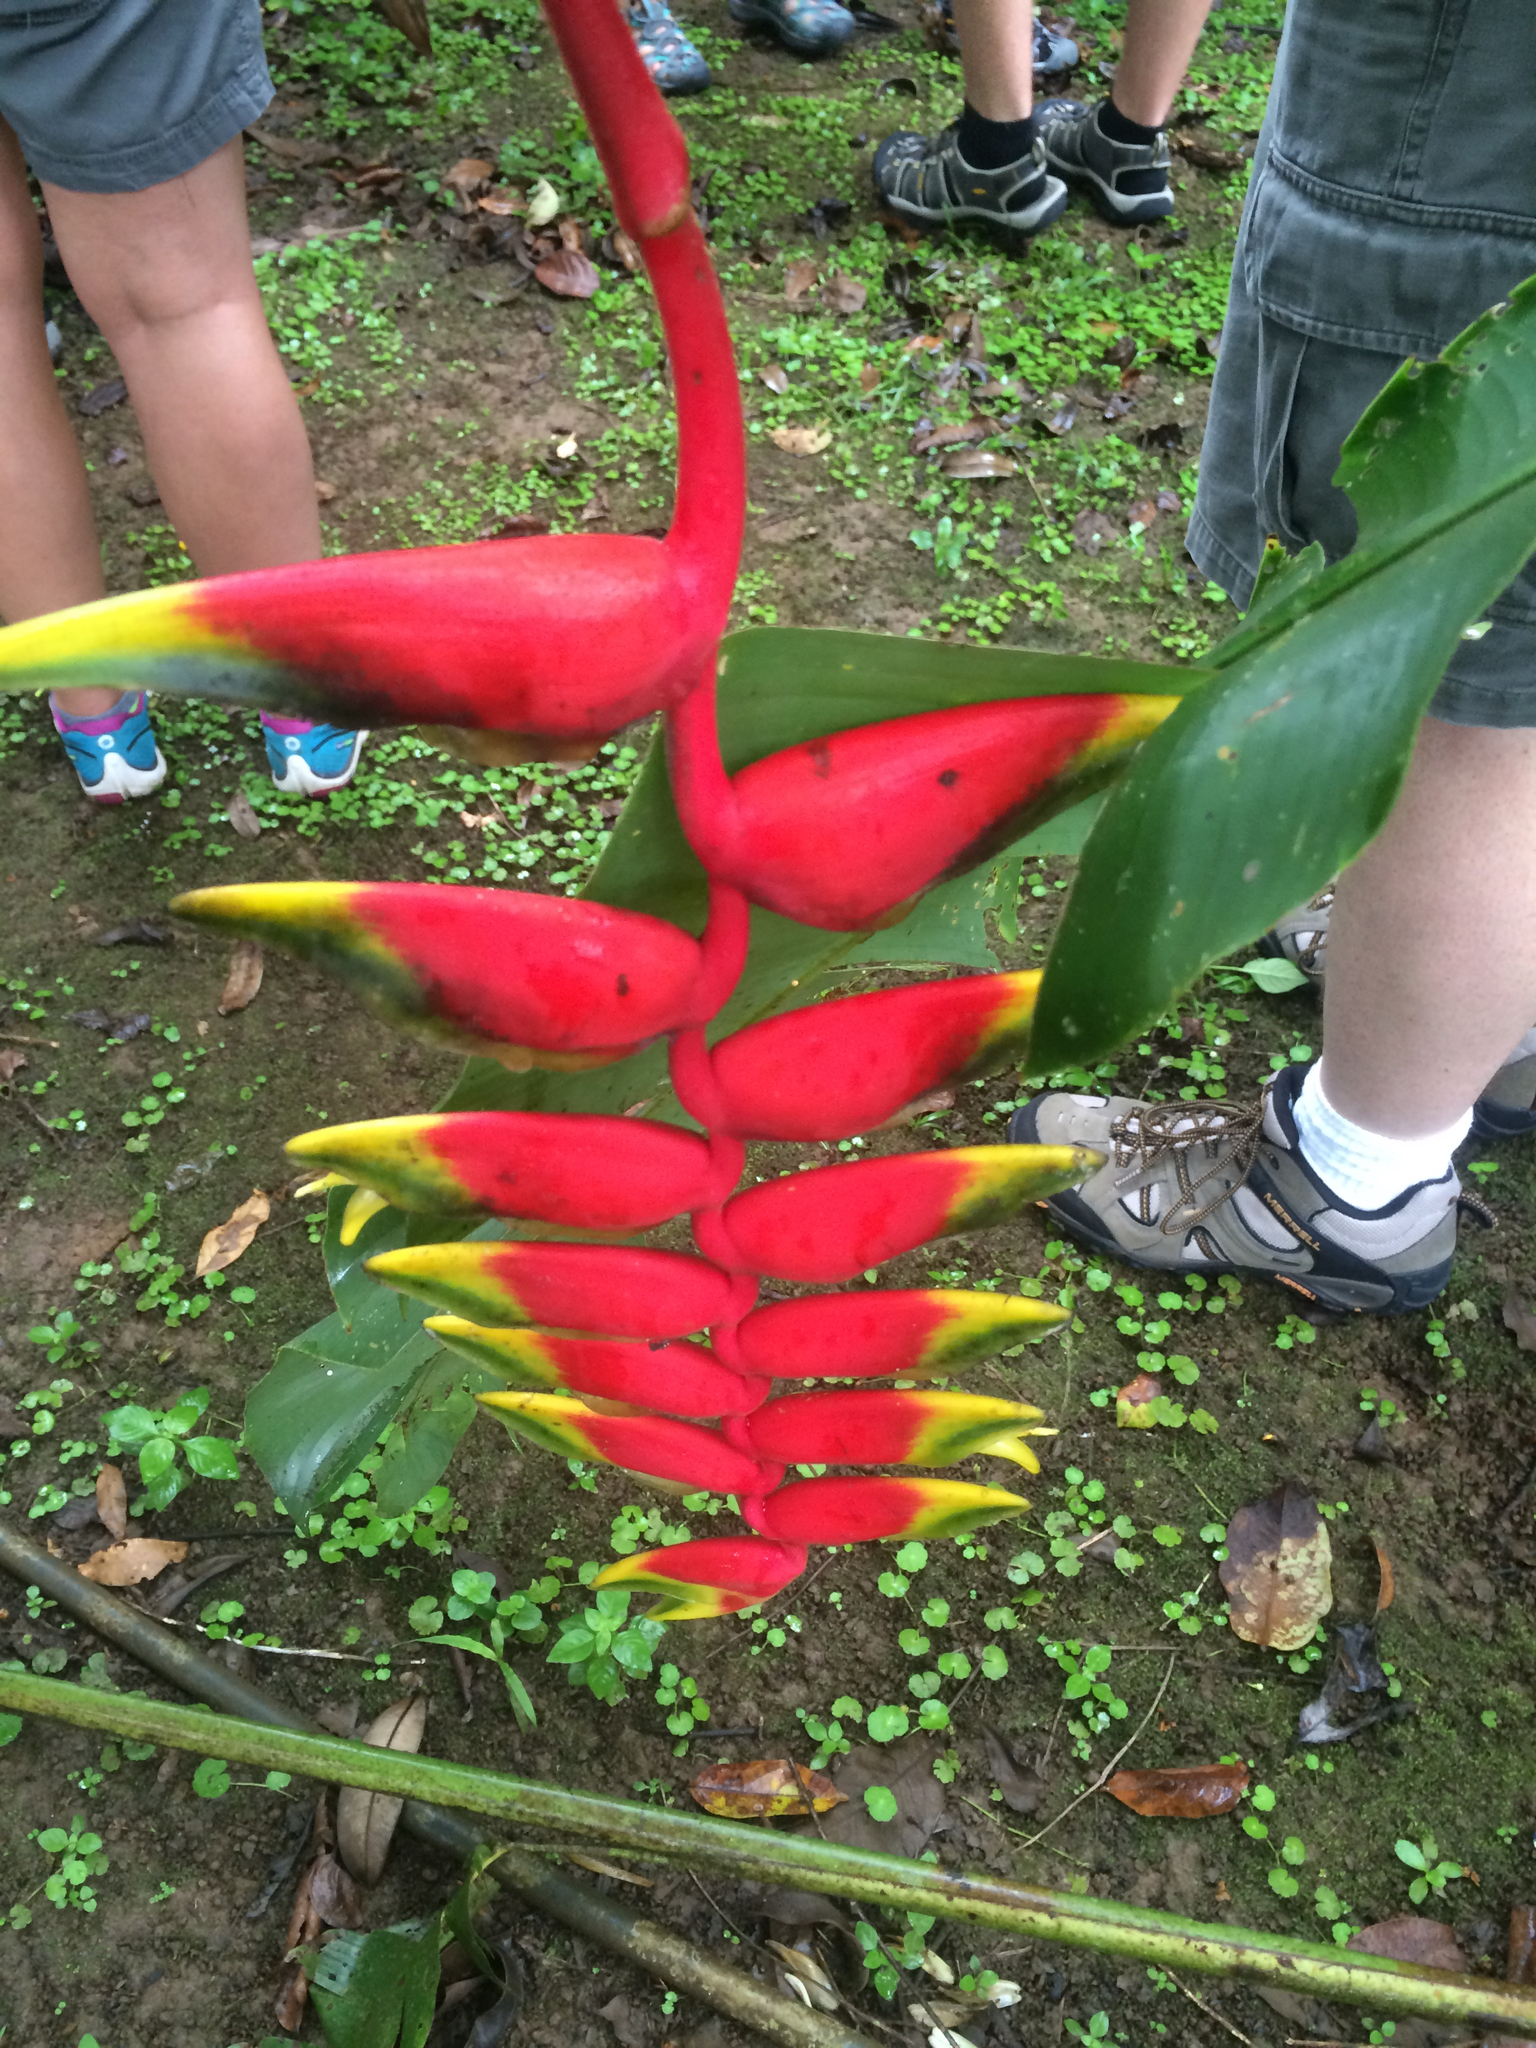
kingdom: Plantae
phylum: Tracheophyta
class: Liliopsida
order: Zingiberales
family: Heliconiaceae
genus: Heliconia
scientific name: Heliconia rostrata
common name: False bird of paradise
